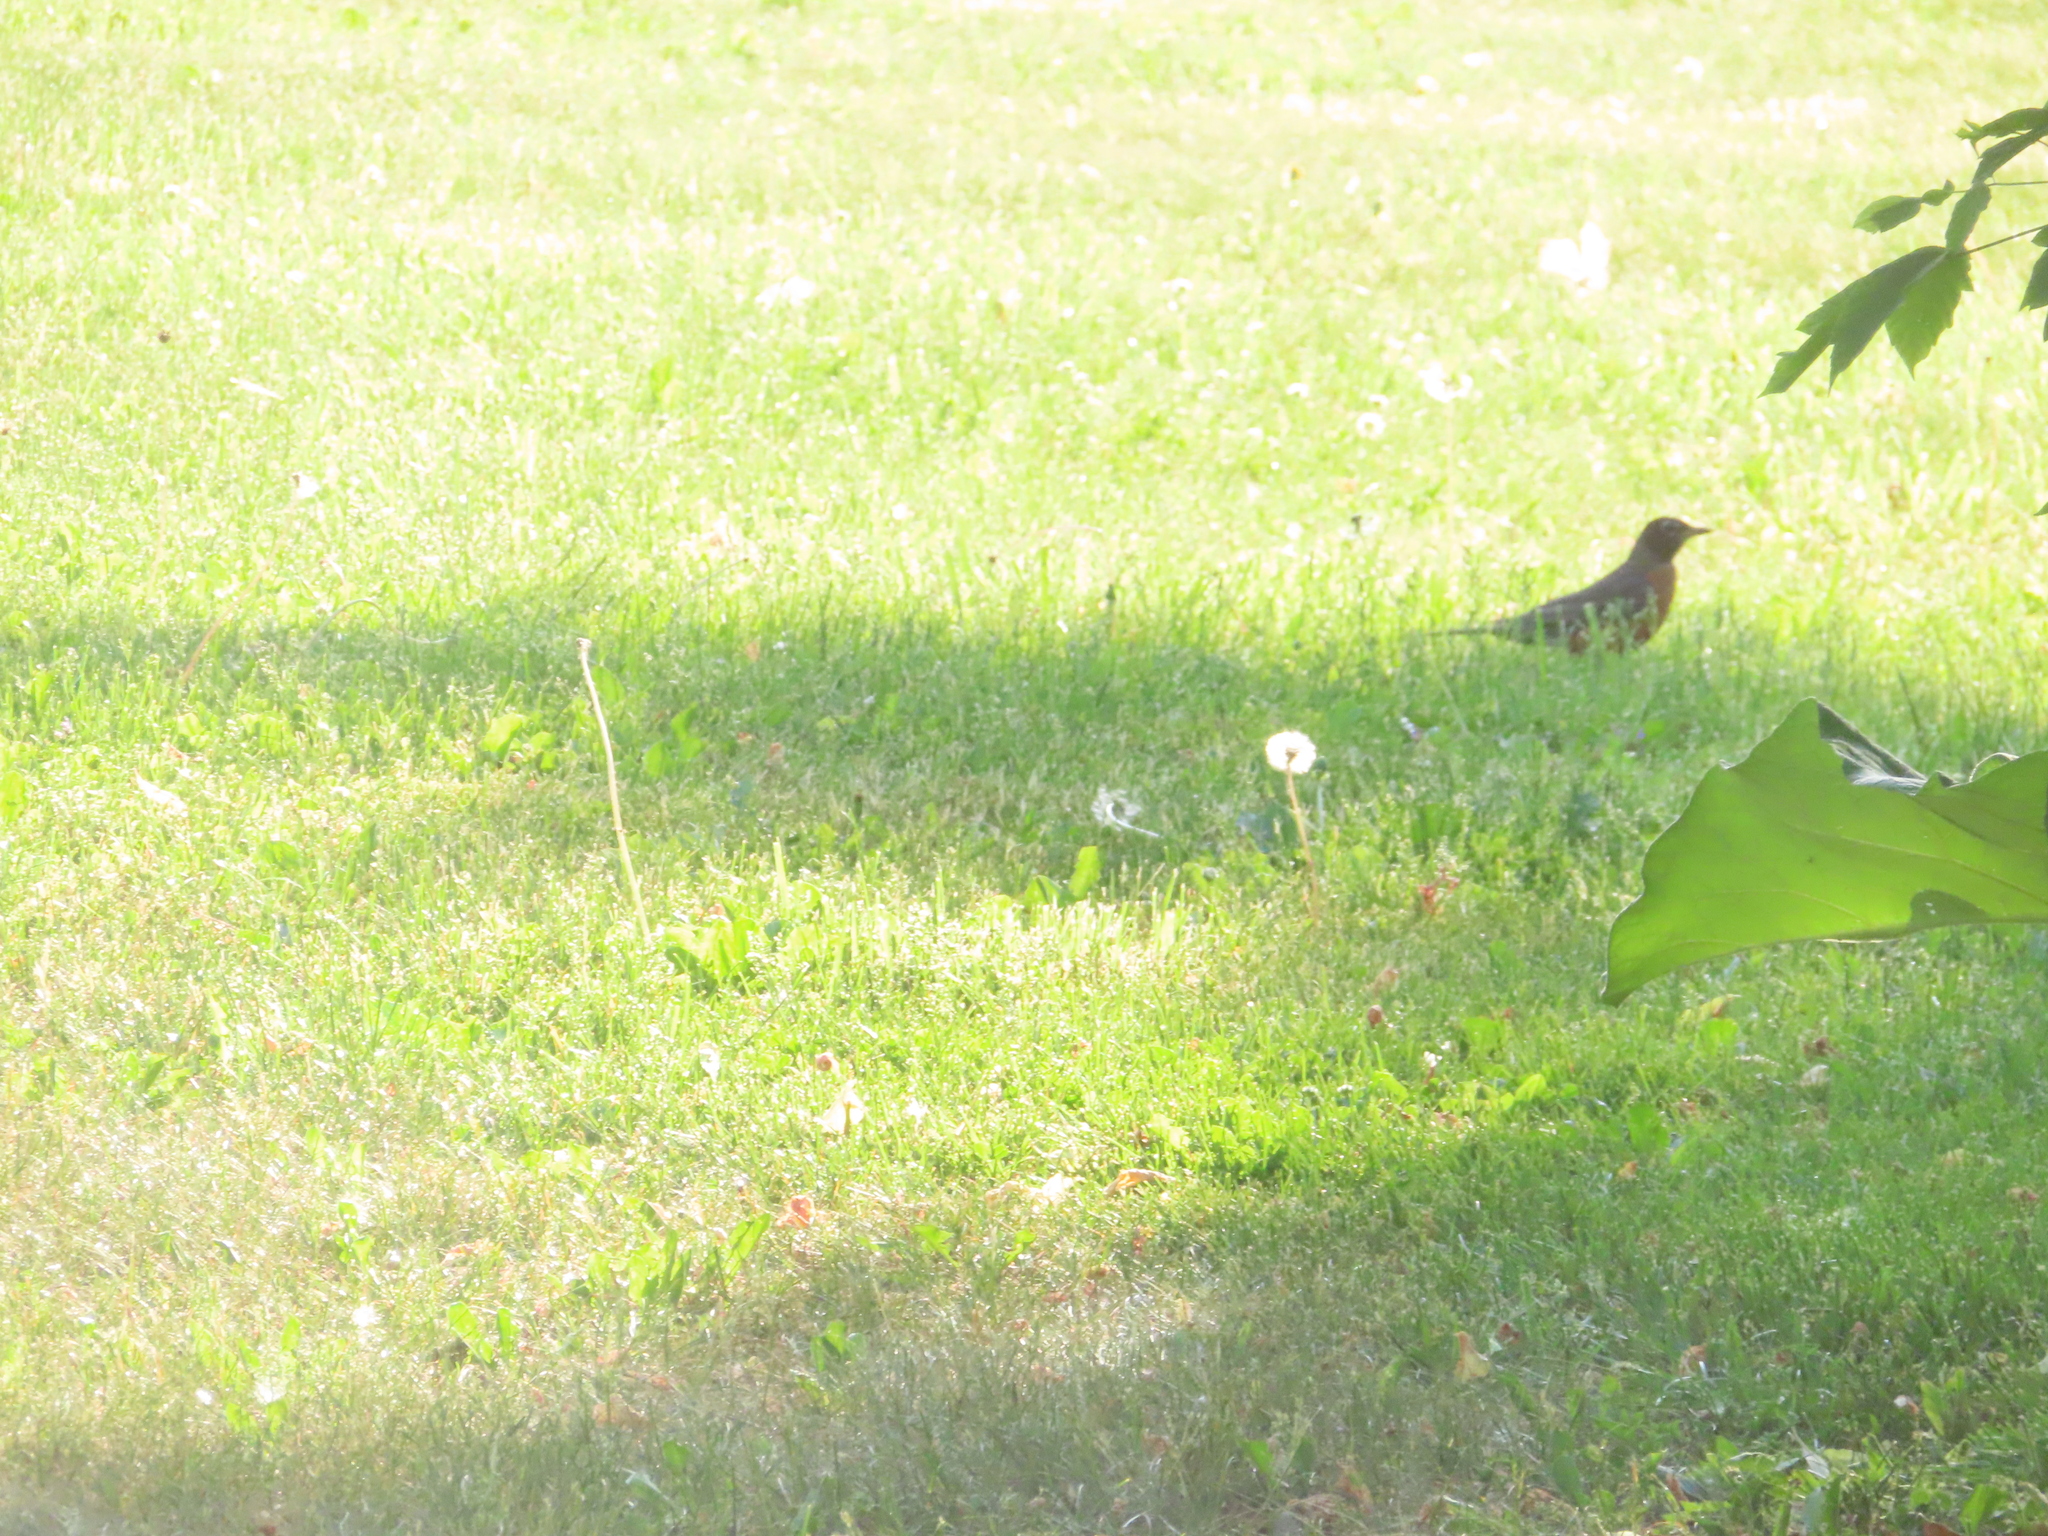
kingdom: Animalia
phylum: Chordata
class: Aves
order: Passeriformes
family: Turdidae
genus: Turdus
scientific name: Turdus migratorius
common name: American robin
